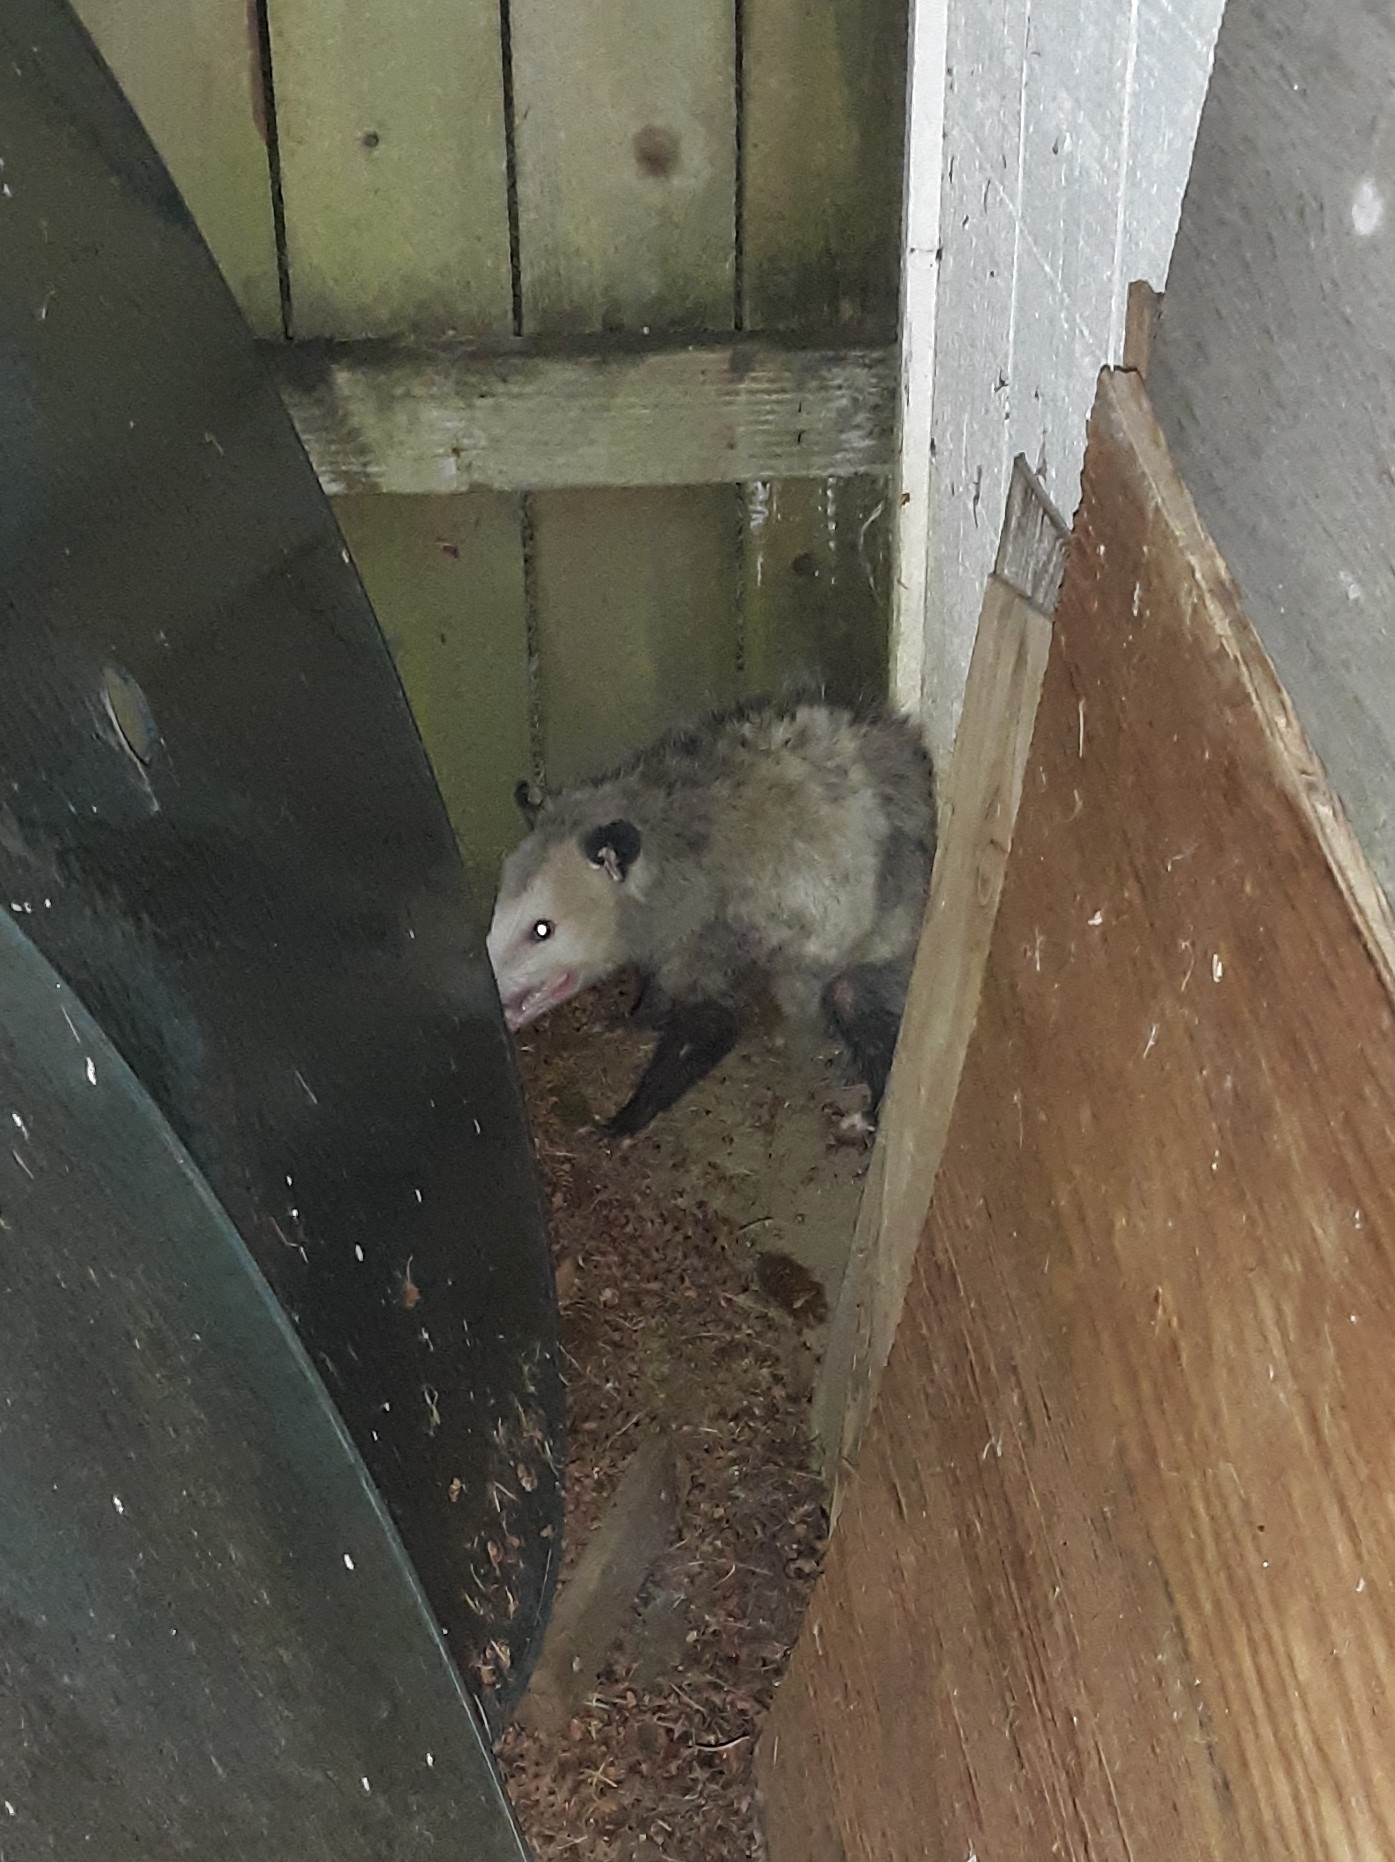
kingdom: Animalia
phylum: Chordata
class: Mammalia
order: Didelphimorphia
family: Didelphidae
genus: Didelphis
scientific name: Didelphis virginiana
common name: Virginia opossum
